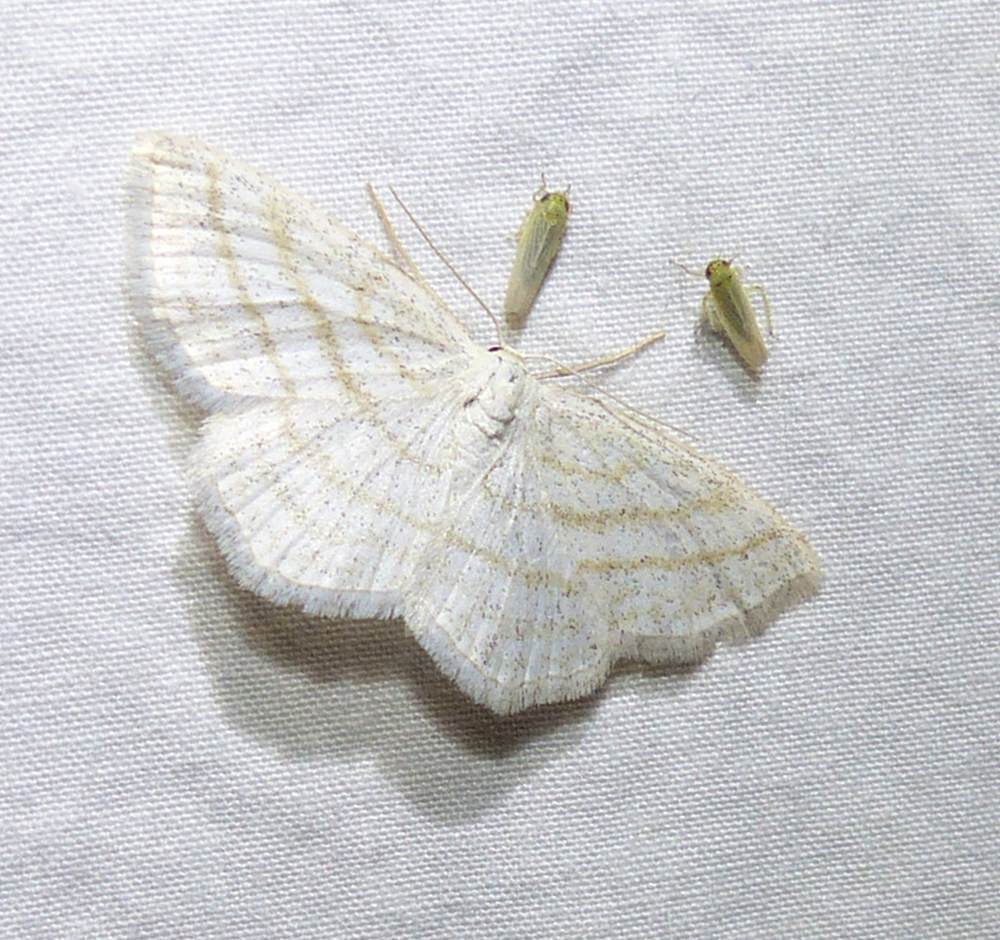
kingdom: Animalia
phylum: Arthropoda
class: Insecta
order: Lepidoptera
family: Geometridae
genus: Scopula
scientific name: Scopula quadrilineata
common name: Four-lined wave moth
